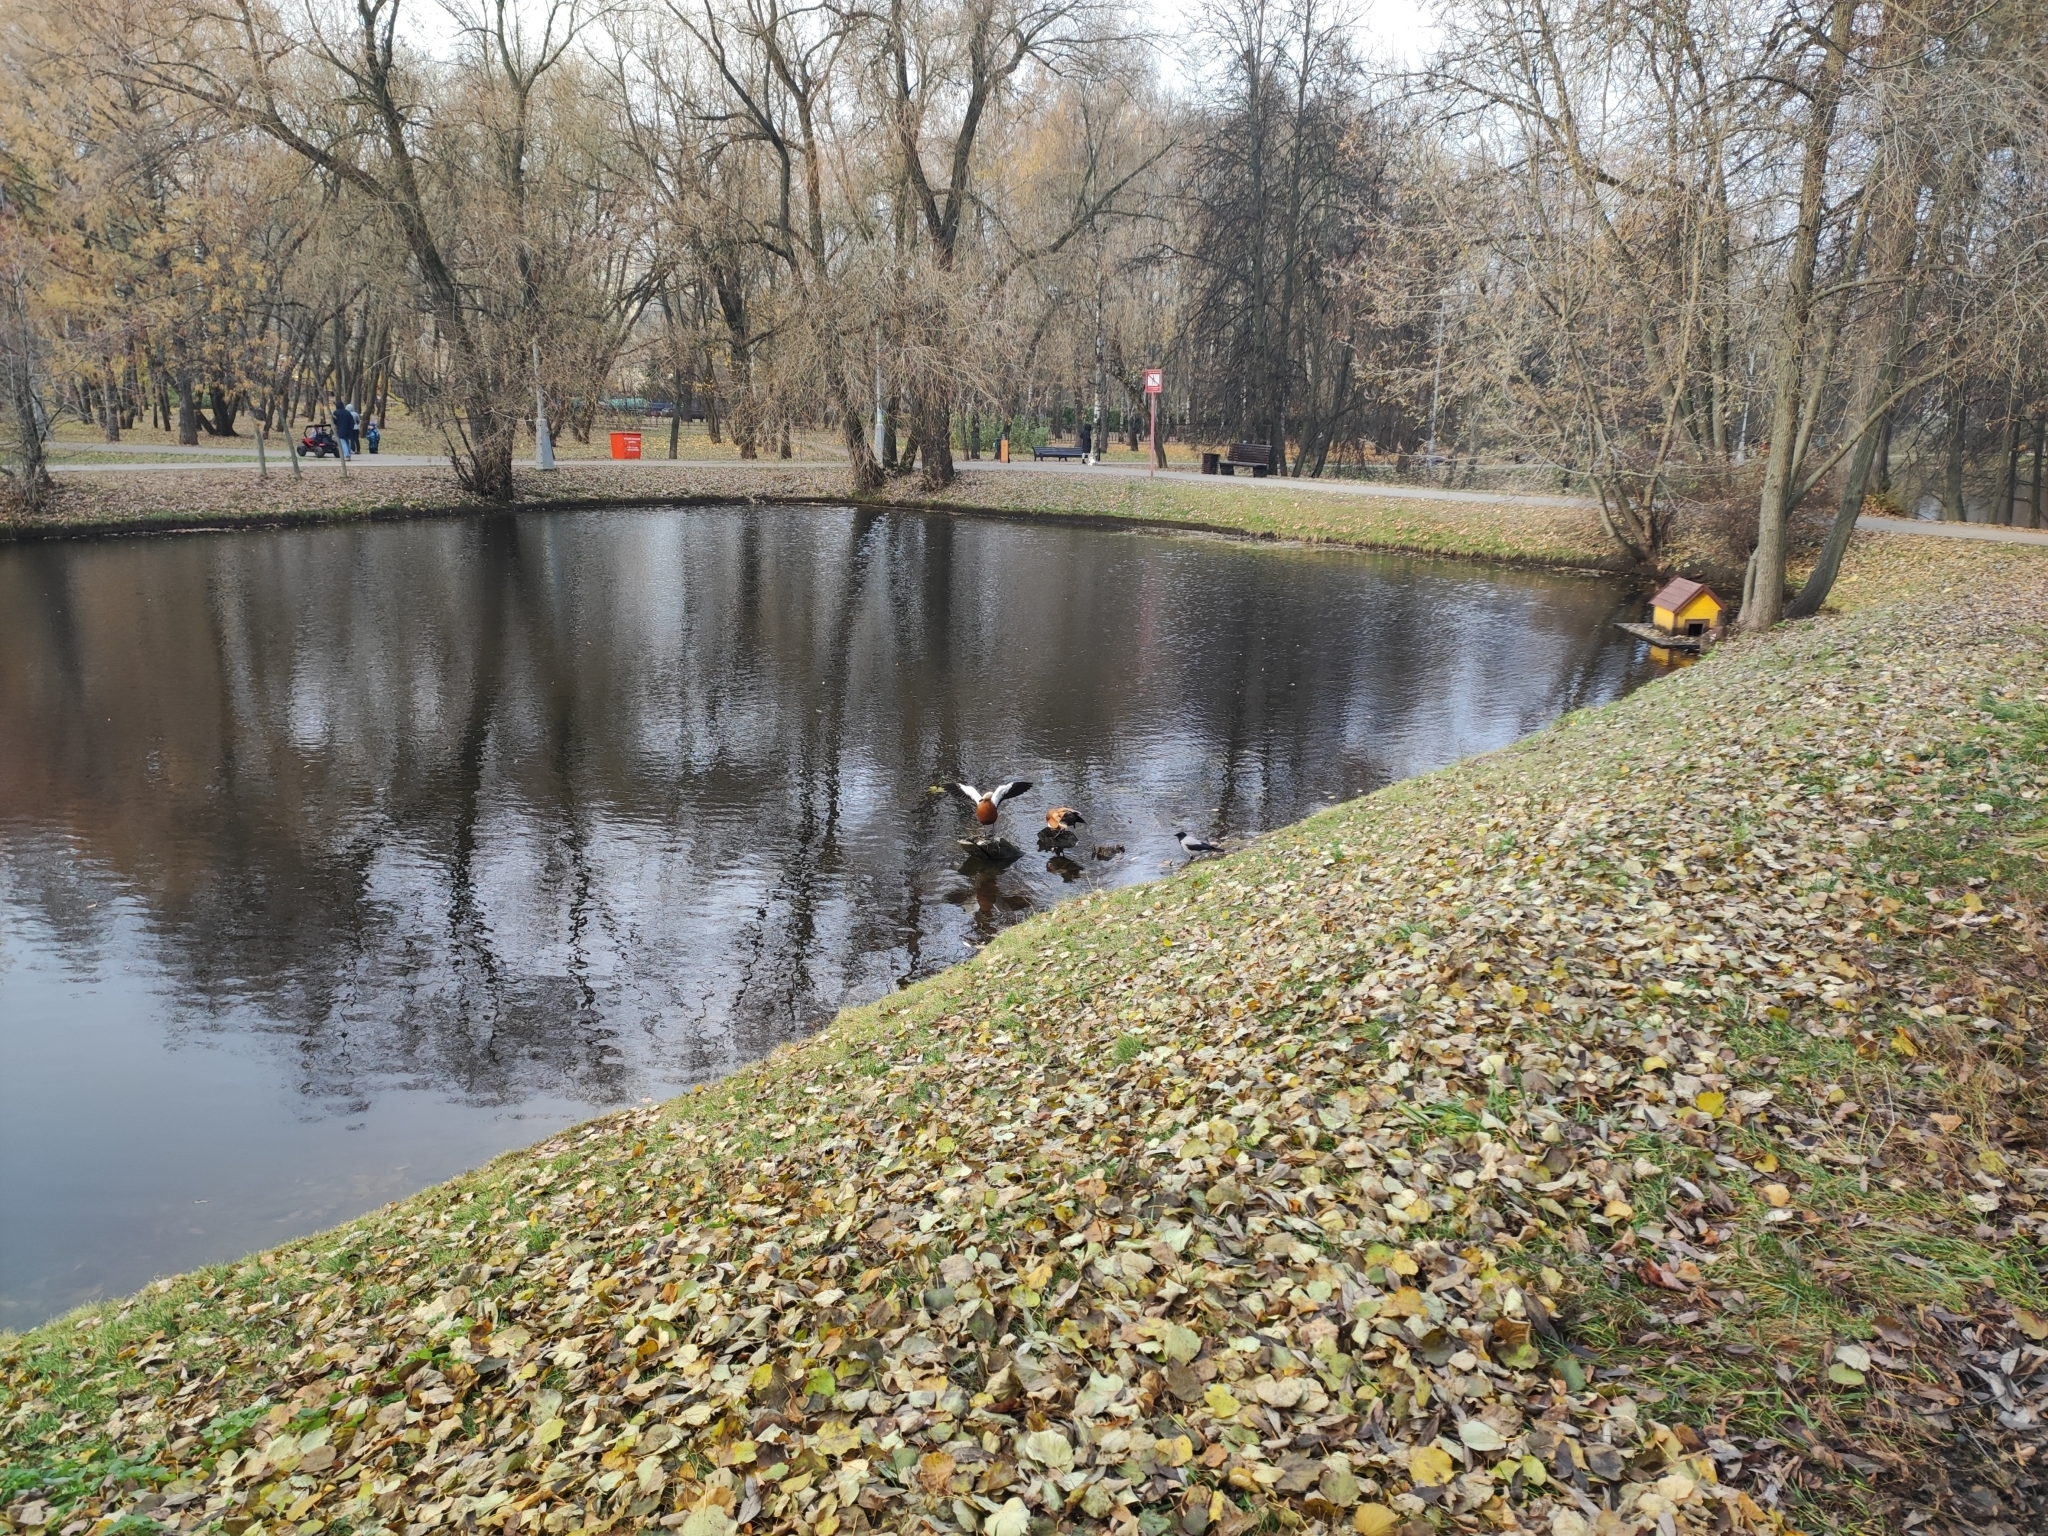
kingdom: Animalia
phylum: Chordata
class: Aves
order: Anseriformes
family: Anatidae
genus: Tadorna
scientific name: Tadorna ferruginea
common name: Ruddy shelduck
